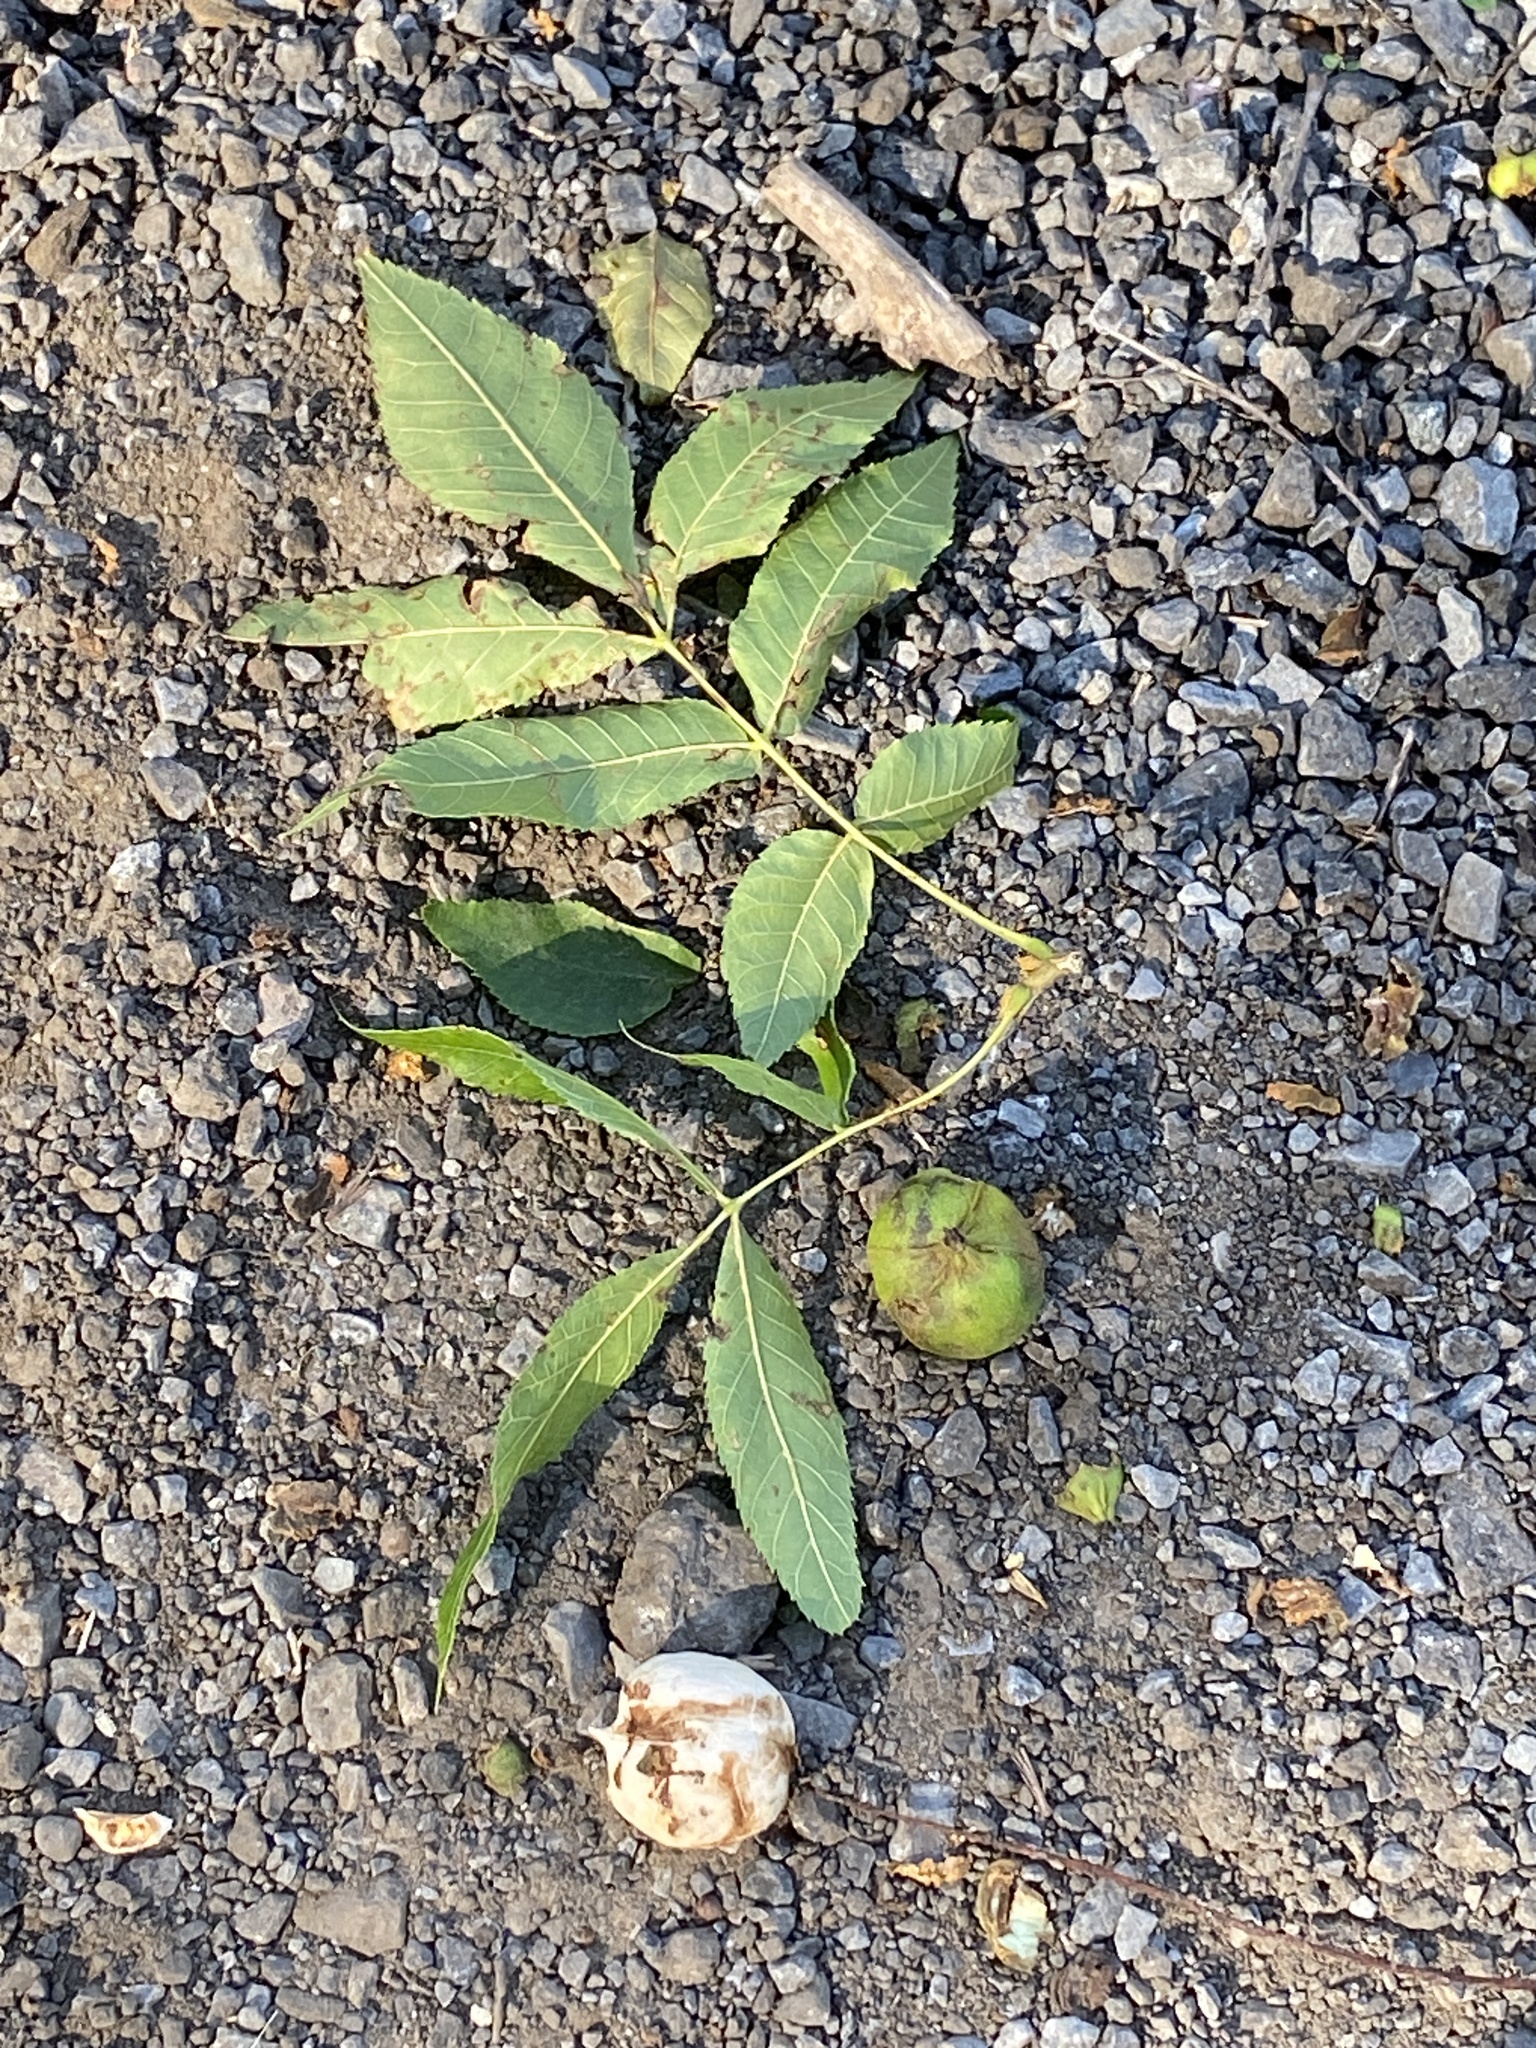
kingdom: Plantae
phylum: Tracheophyta
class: Magnoliopsida
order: Fagales
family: Juglandaceae
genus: Carya
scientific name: Carya cordiformis
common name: Bitternut hickory
